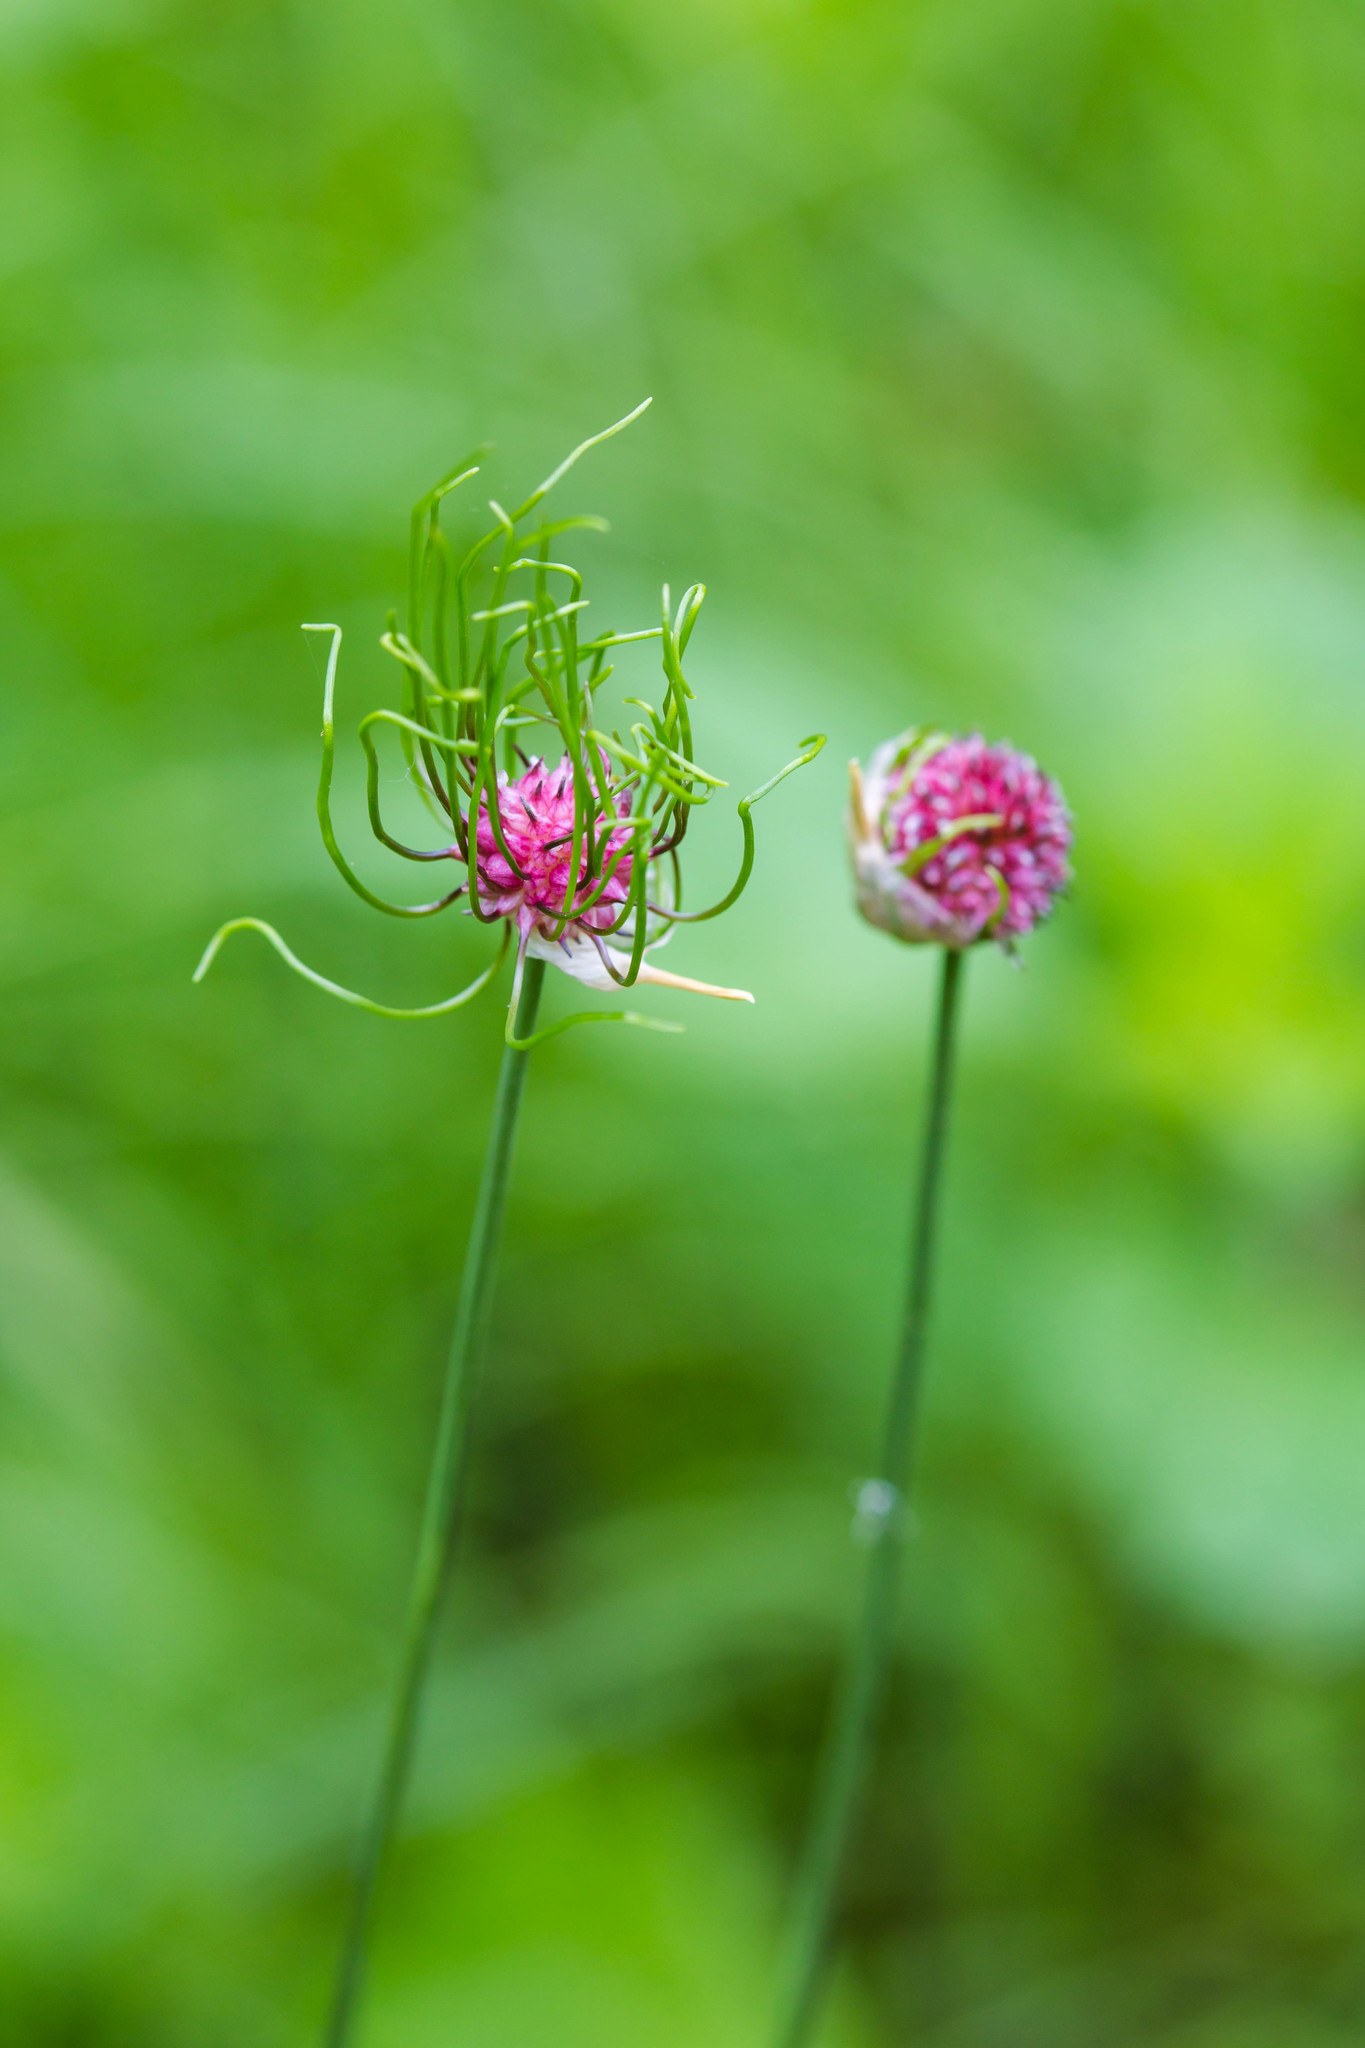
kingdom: Plantae
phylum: Tracheophyta
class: Liliopsida
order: Asparagales
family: Amaryllidaceae
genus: Allium
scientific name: Allium vineale
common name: Crow garlic
